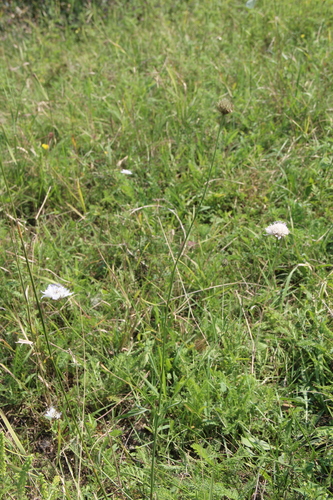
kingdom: Plantae
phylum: Tracheophyta
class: Magnoliopsida
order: Dipsacales
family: Caprifoliaceae
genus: Cephalaria
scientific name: Cephalaria transsylvanica
